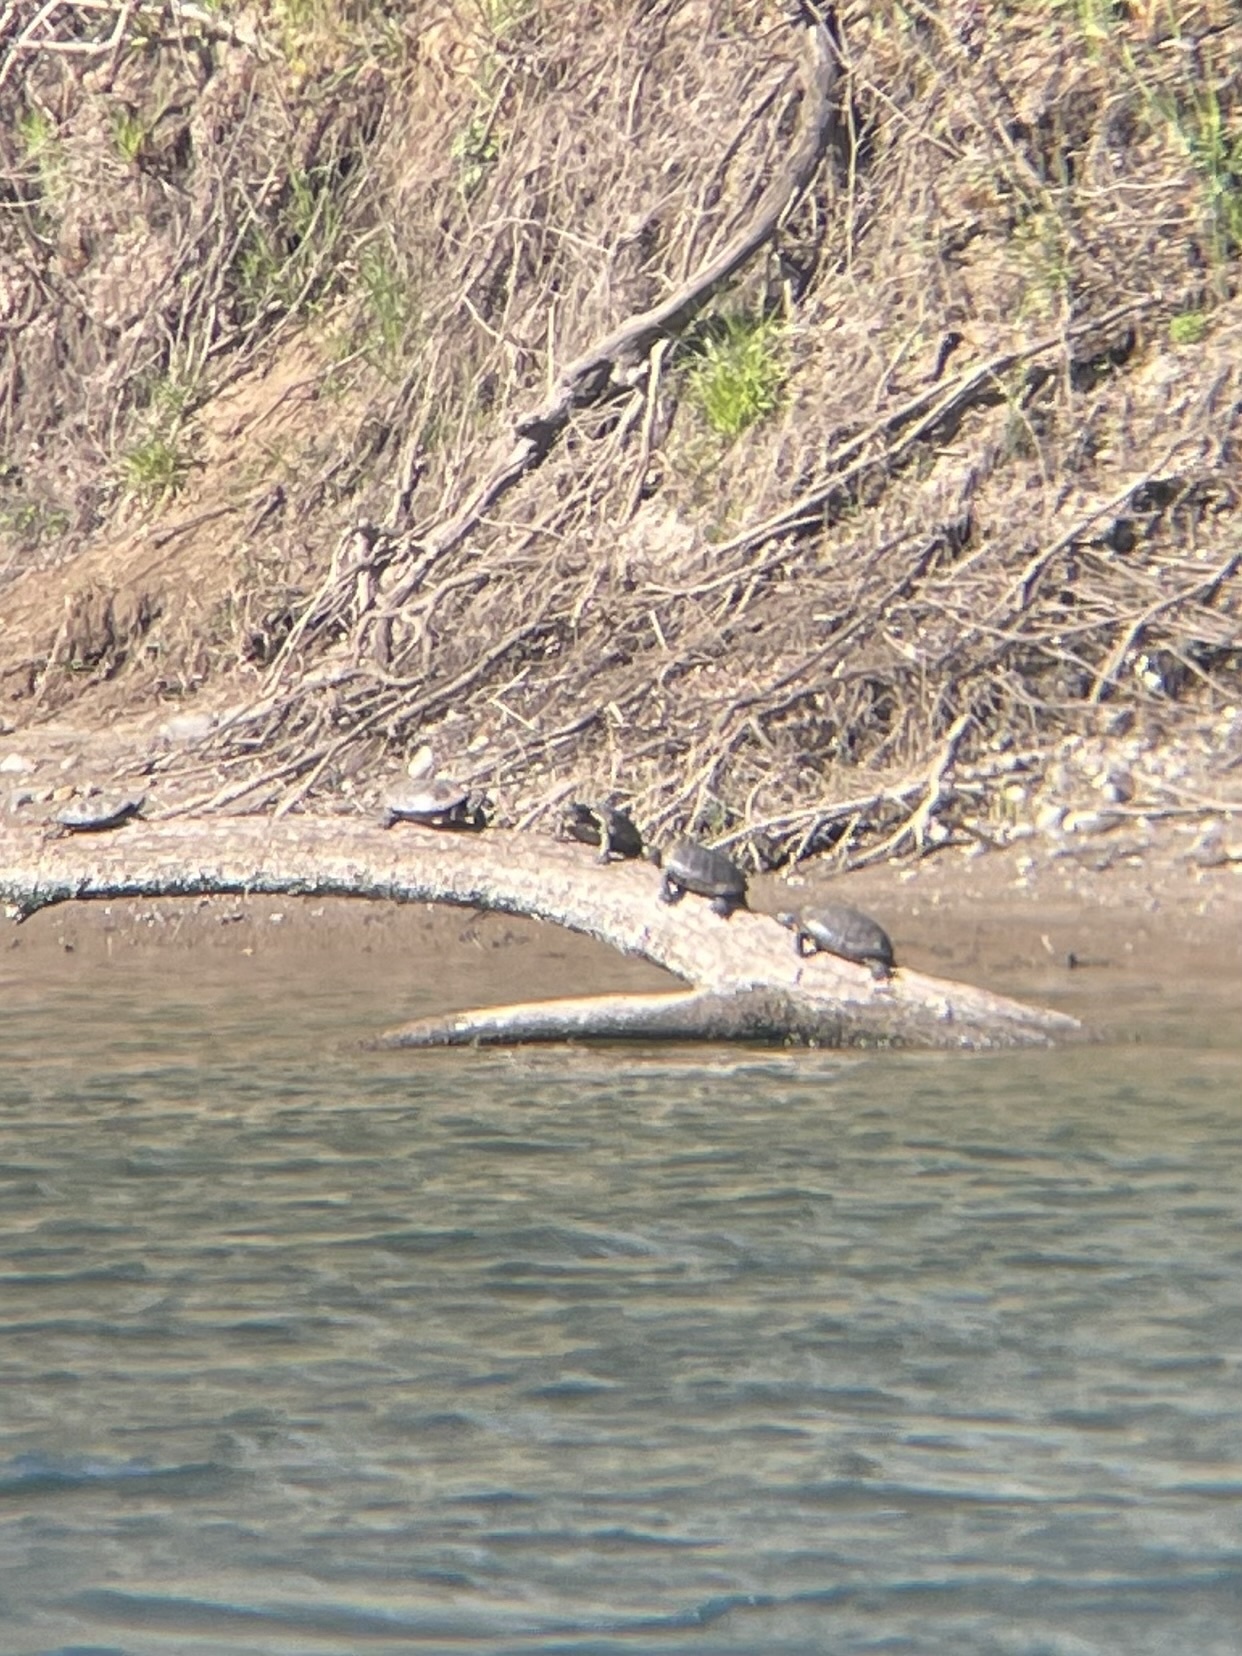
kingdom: Animalia
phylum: Chordata
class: Testudines
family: Emydidae
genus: Actinemys
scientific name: Actinemys marmorata
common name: Western pond turtle
